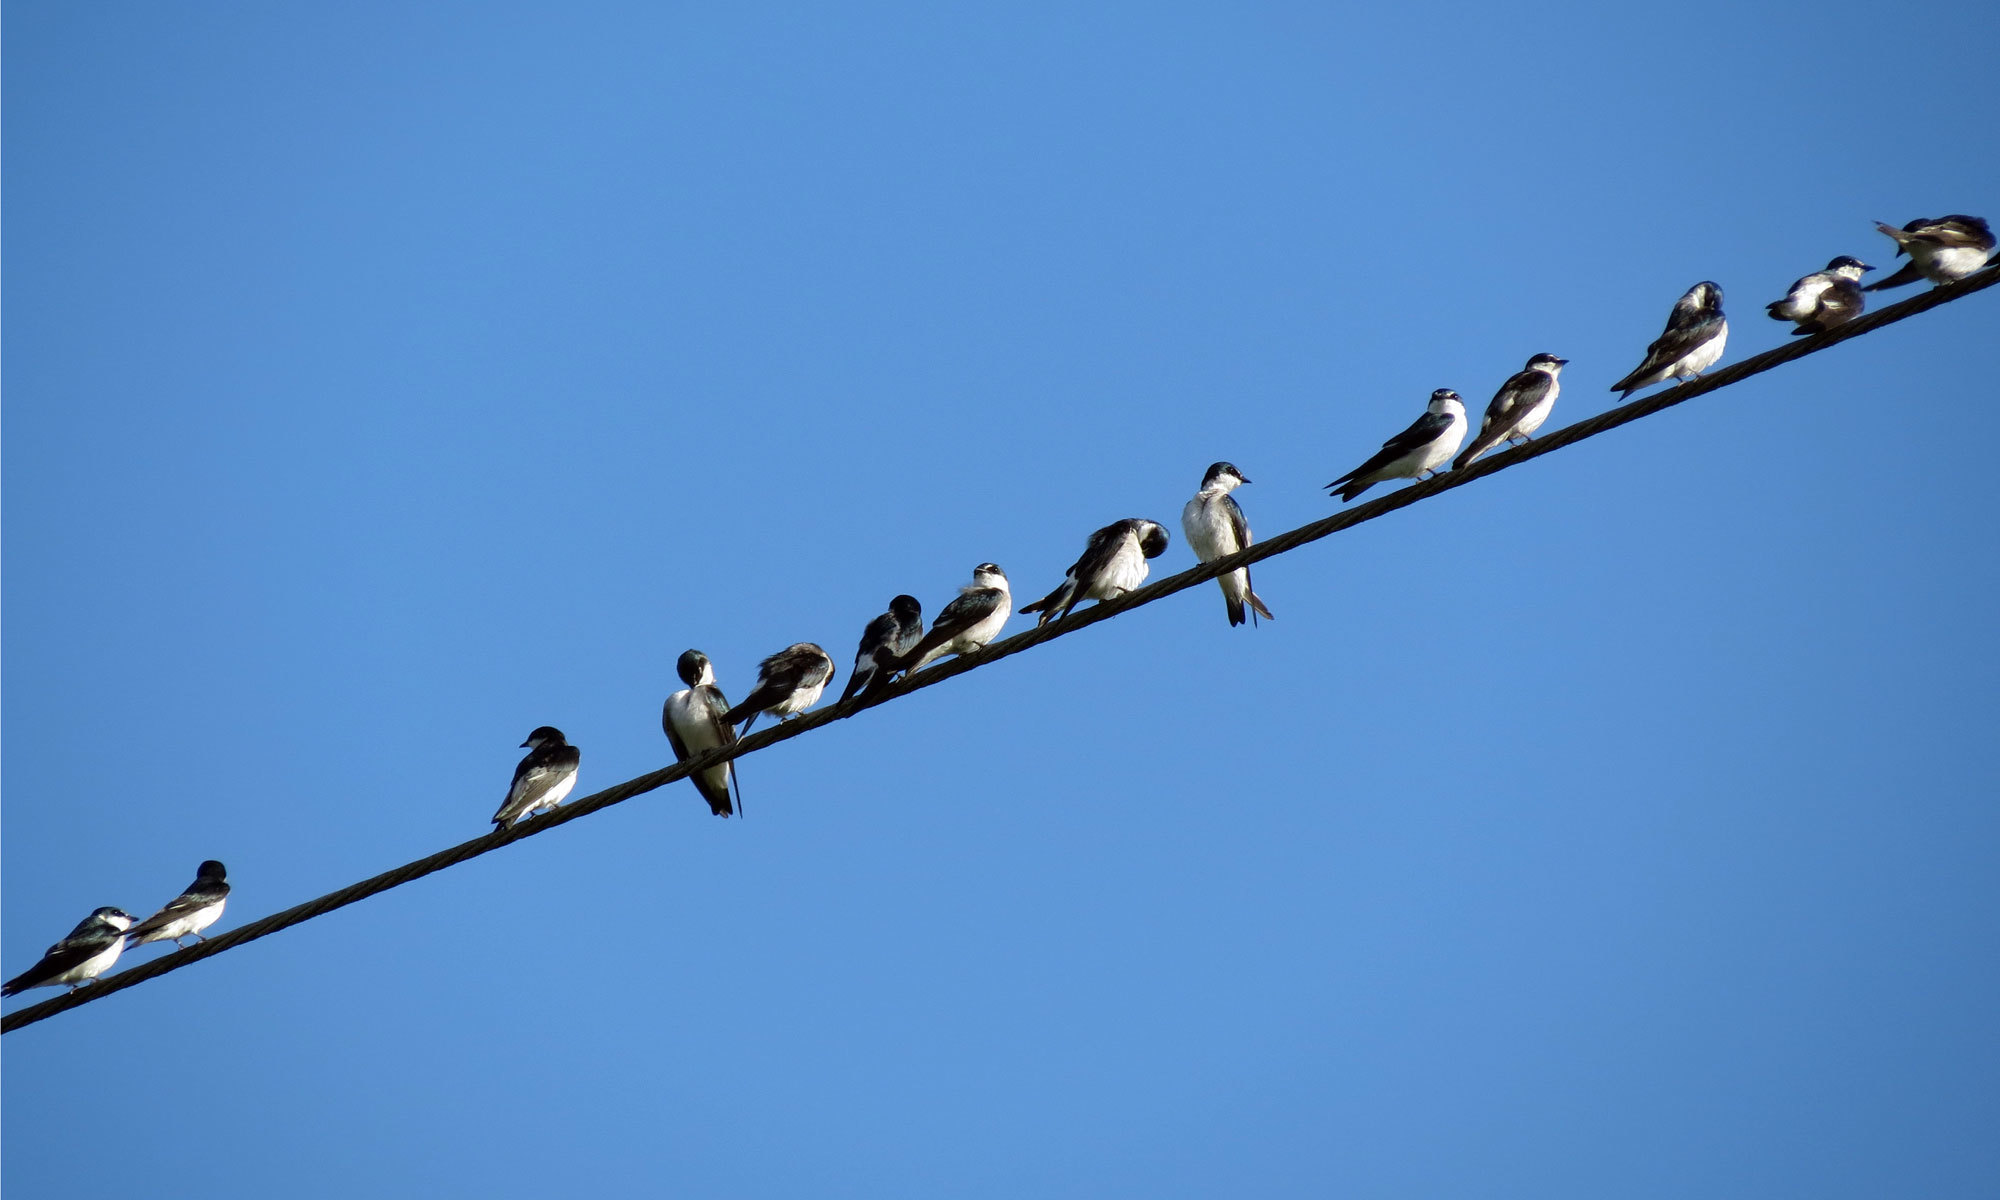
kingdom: Animalia
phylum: Chordata
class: Aves
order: Passeriformes
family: Hirundinidae
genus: Tachycineta
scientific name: Tachycineta albilinea
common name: Mangrove swallow
